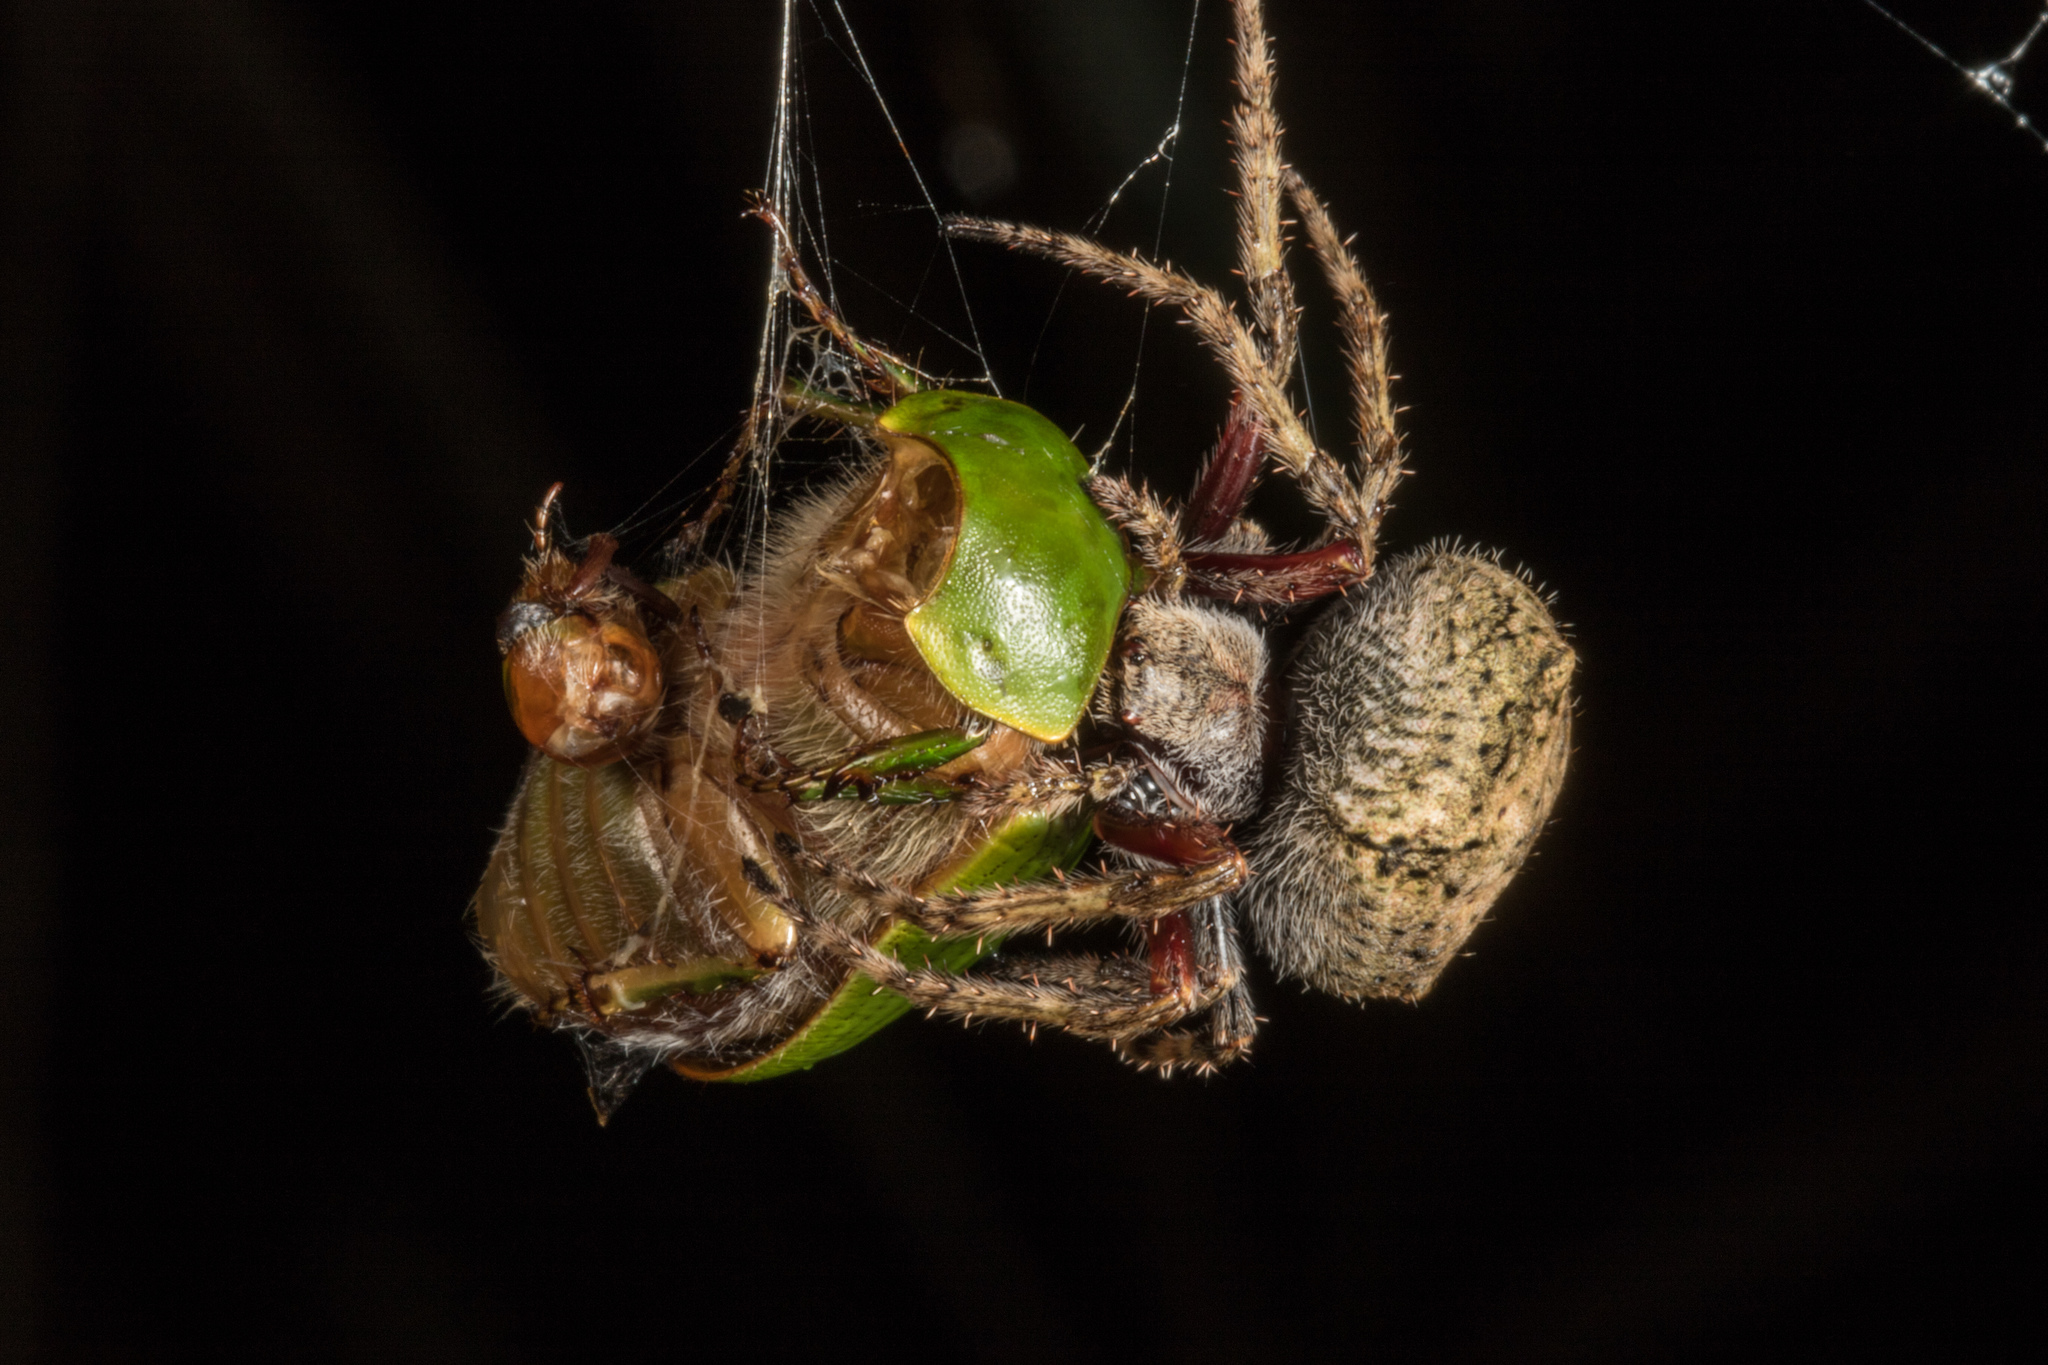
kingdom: Animalia
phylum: Arthropoda
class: Insecta
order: Coleoptera
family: Scarabaeidae
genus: Stethaspis
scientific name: Stethaspis longicornis
